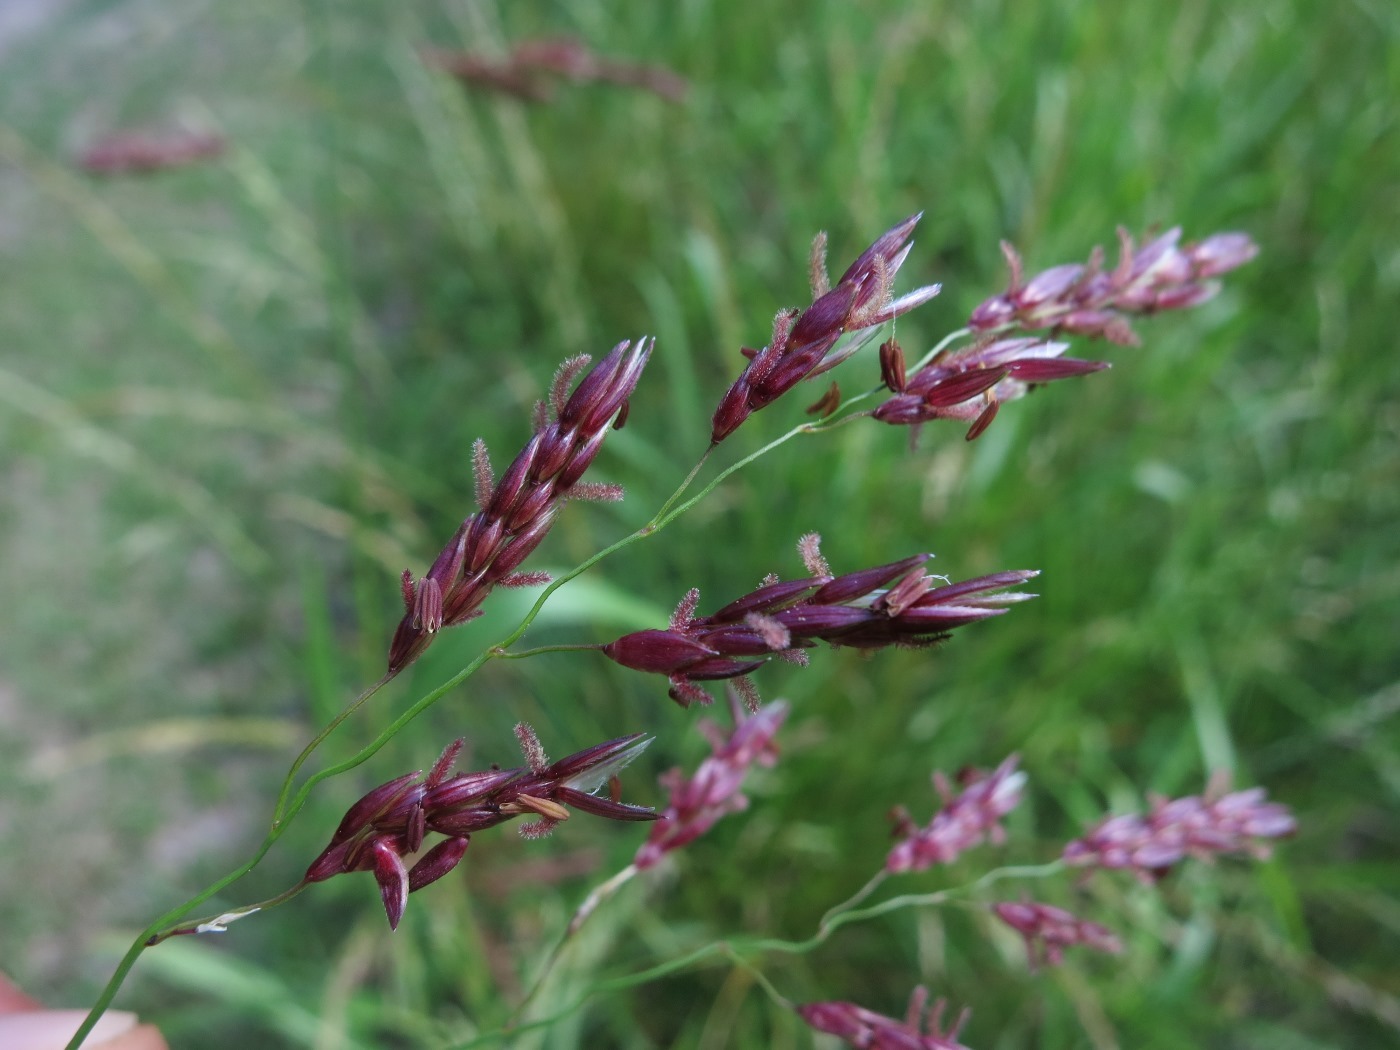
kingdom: Plantae
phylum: Tracheophyta
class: Liliopsida
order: Poales
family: Poaceae
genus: Sorghum
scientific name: Sorghum halepense
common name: Johnson-grass
